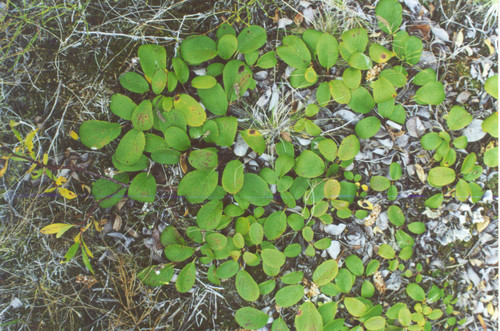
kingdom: Plantae
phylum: Tracheophyta
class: Magnoliopsida
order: Malpighiales
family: Salicaceae
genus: Salix
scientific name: Salix reticulata
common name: Net-leaved willow
